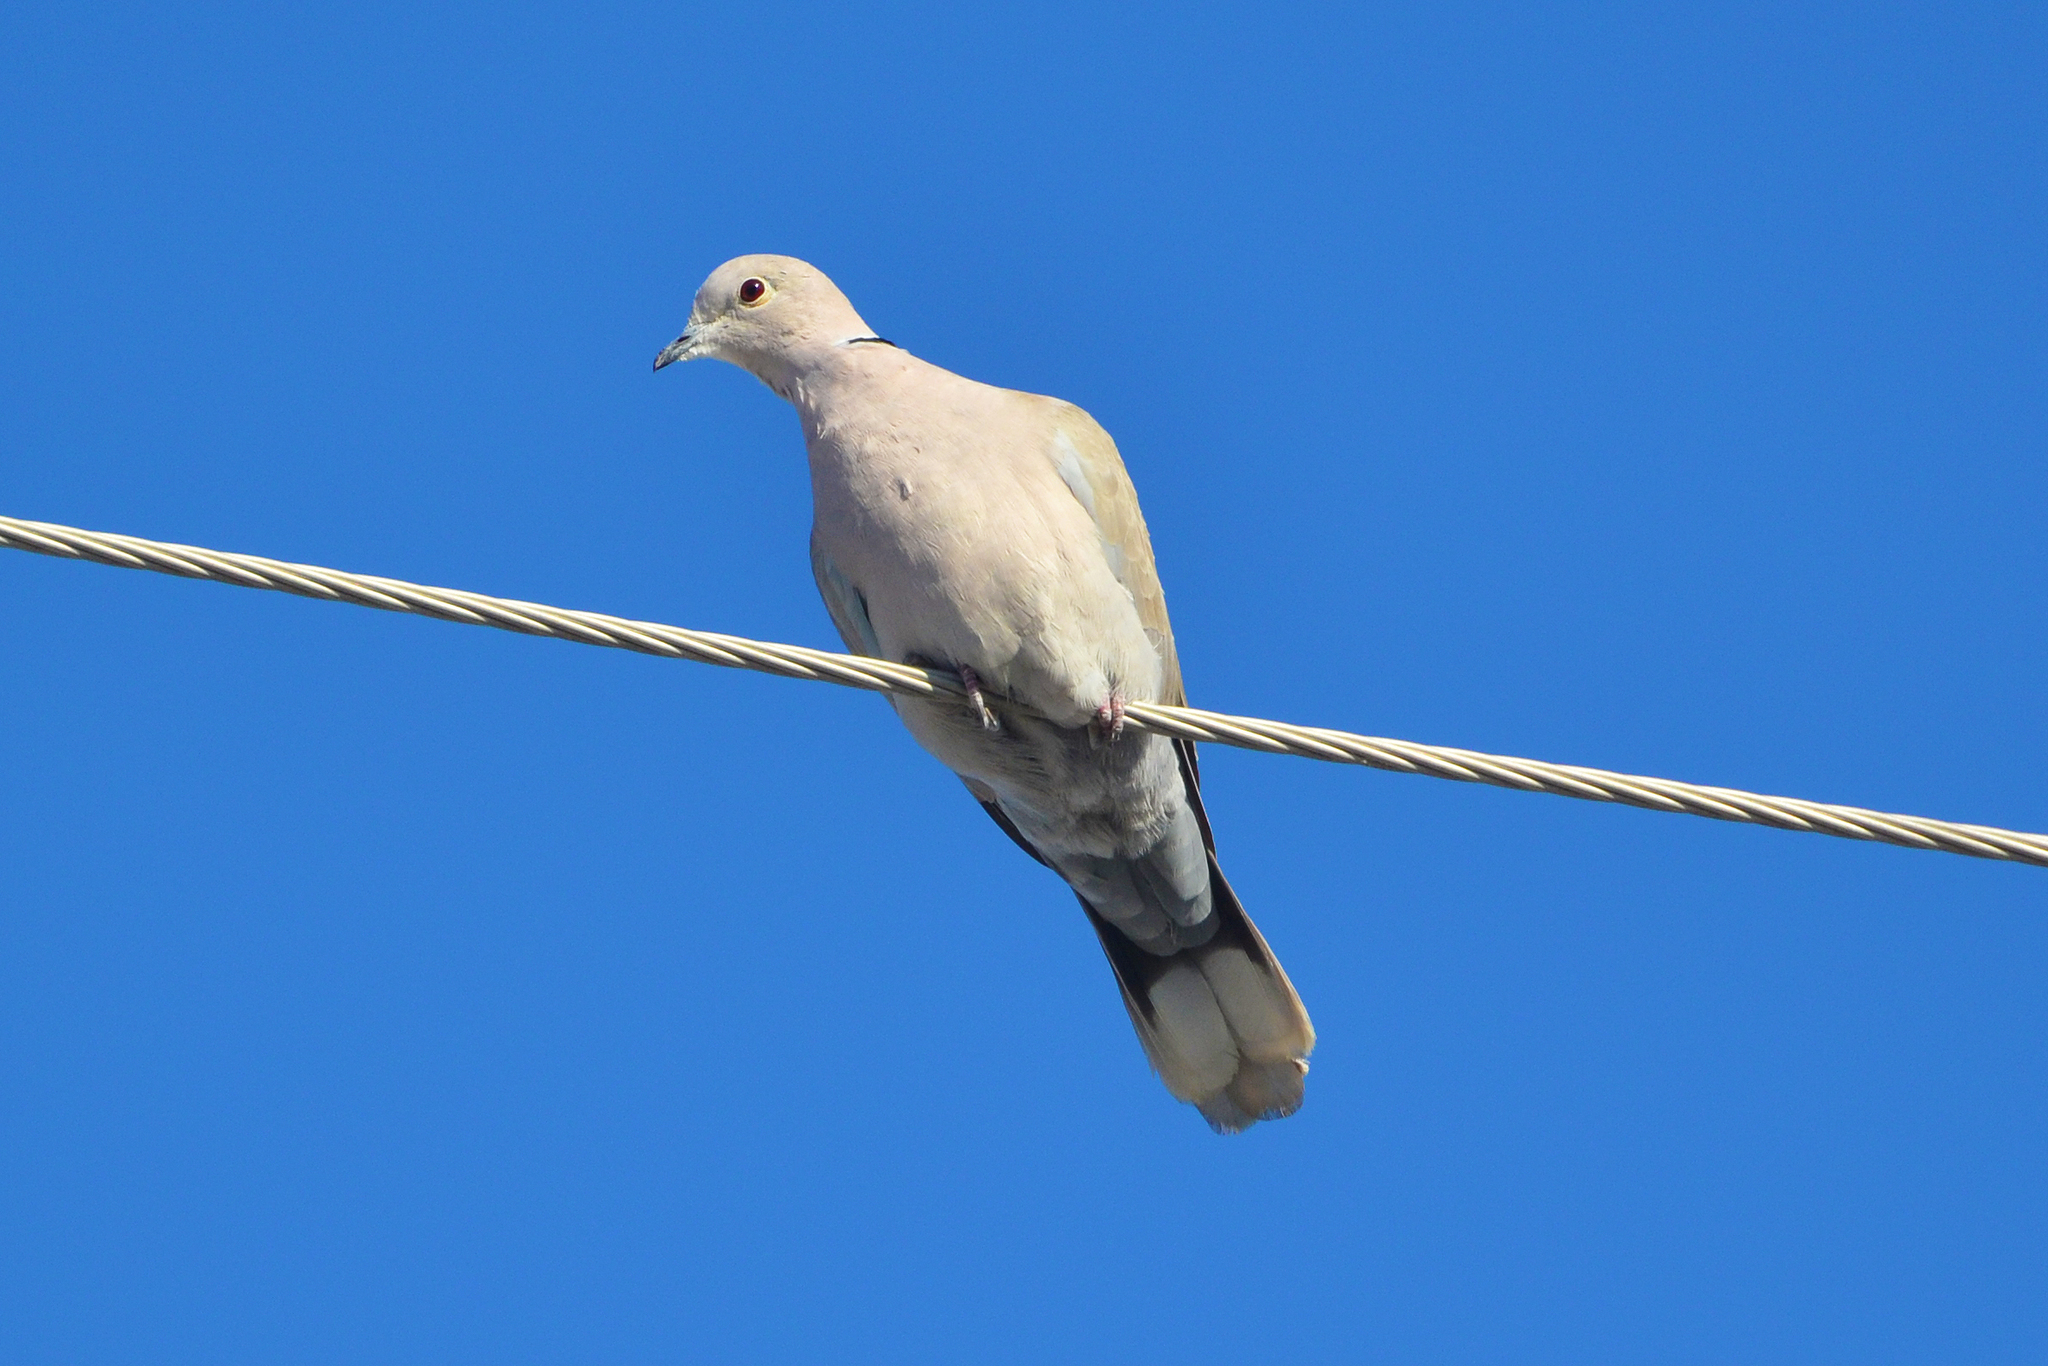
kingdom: Animalia
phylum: Chordata
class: Aves
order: Columbiformes
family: Columbidae
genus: Streptopelia
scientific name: Streptopelia decaocto
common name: Eurasian collared dove
